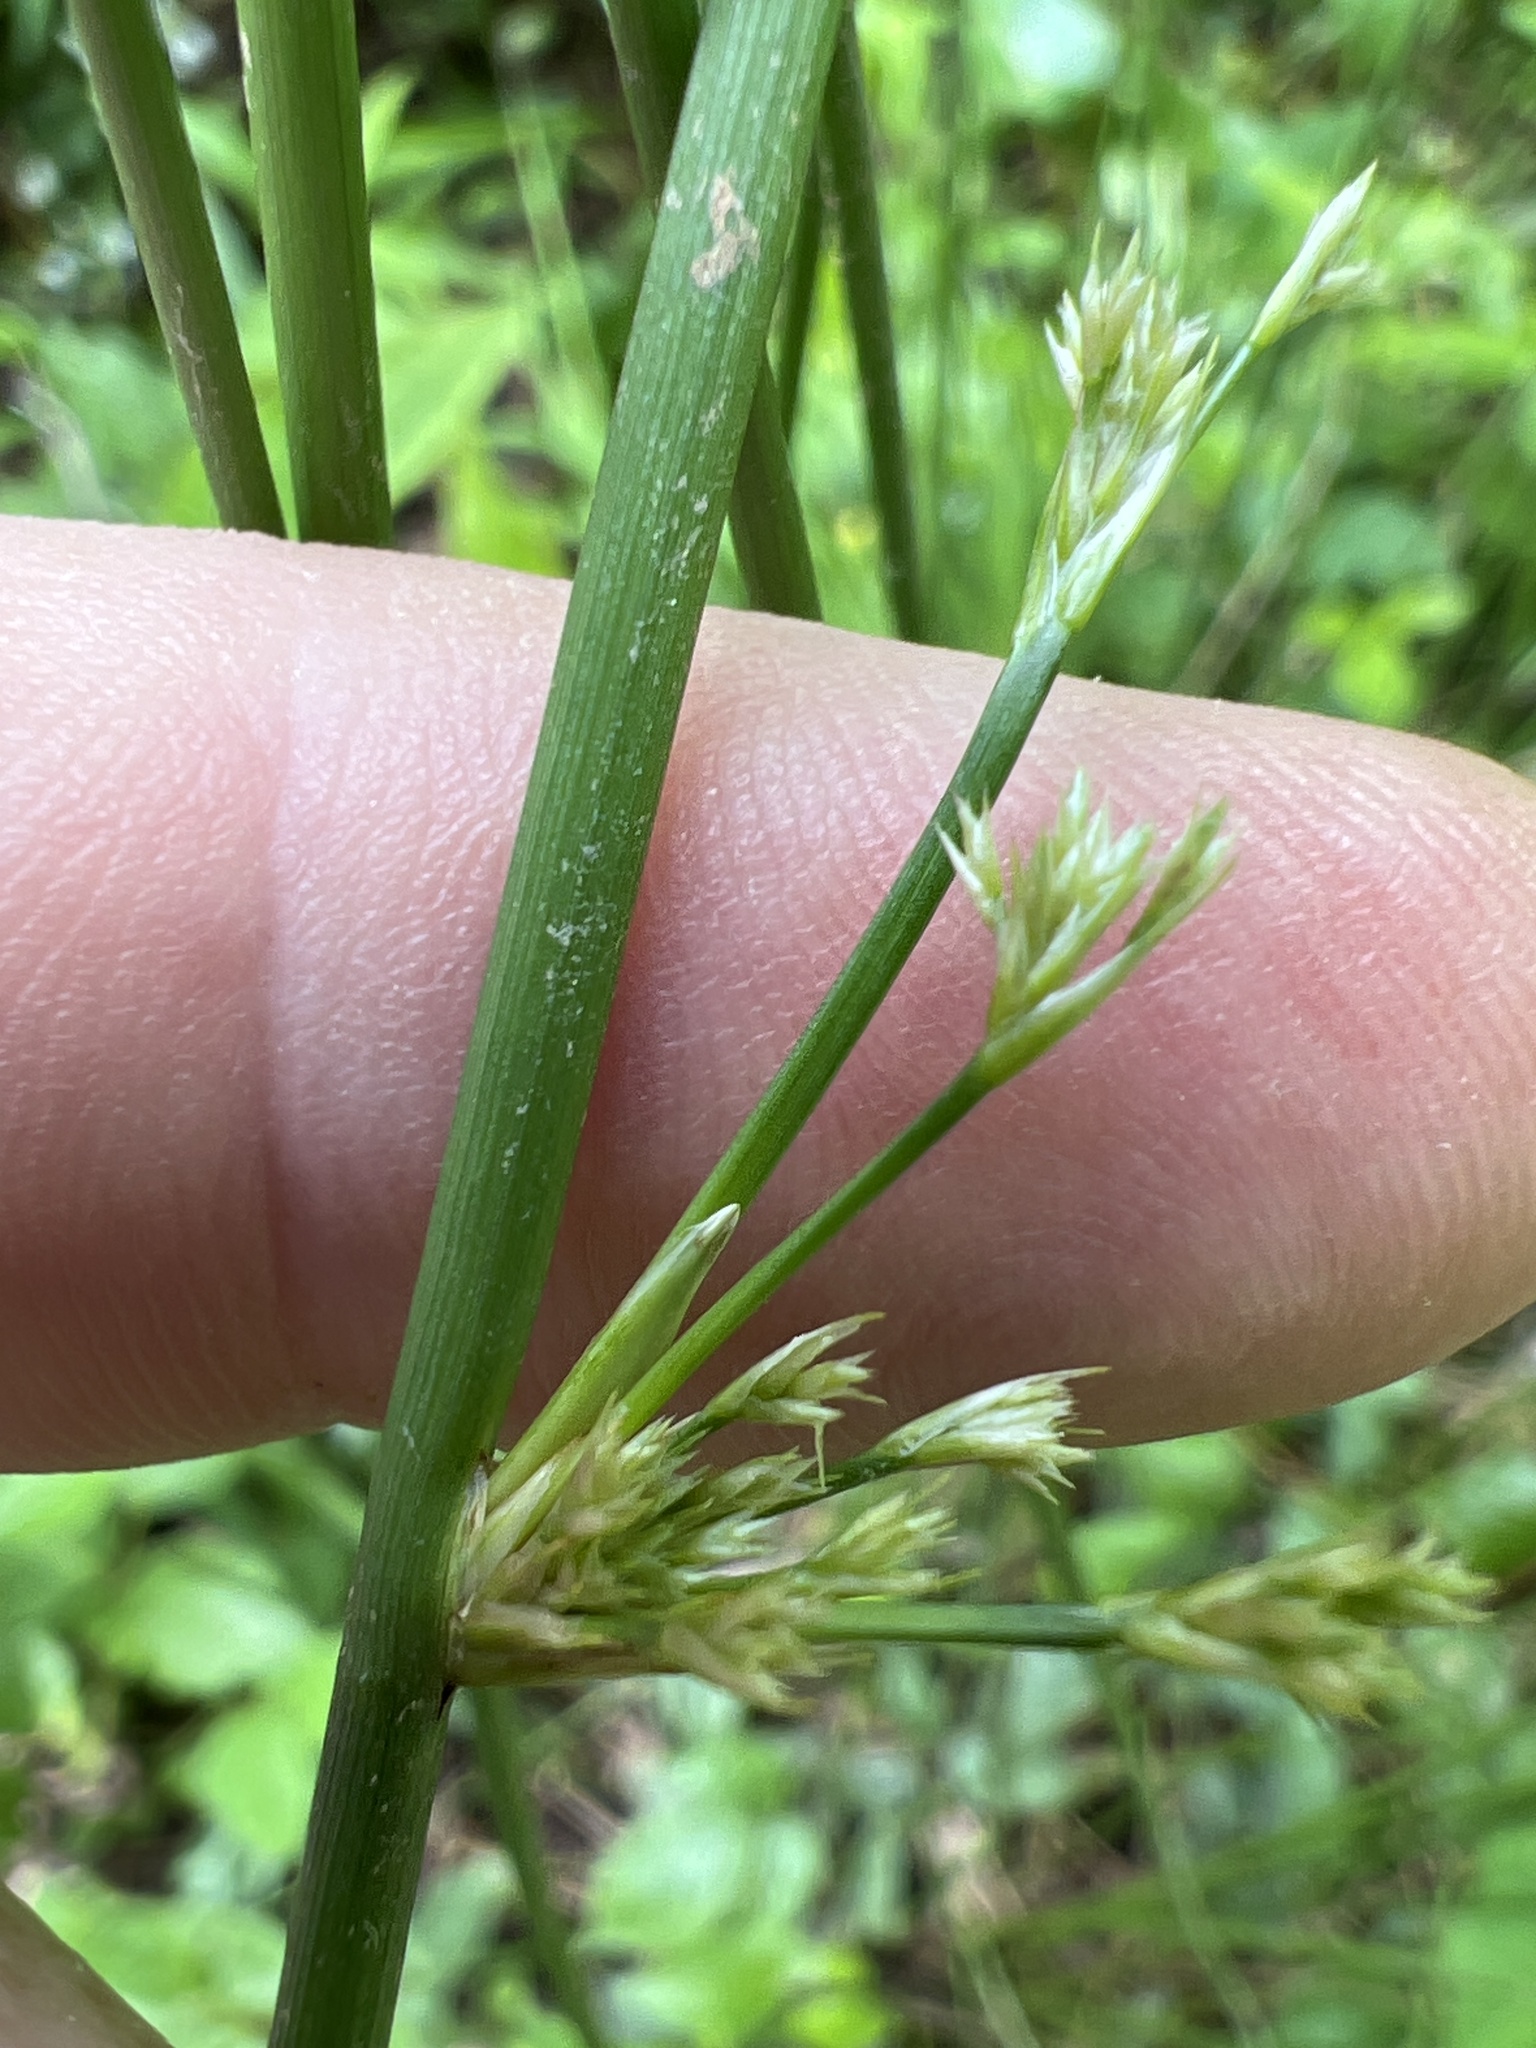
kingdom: Plantae
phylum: Tracheophyta
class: Liliopsida
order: Poales
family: Juncaceae
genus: Juncus
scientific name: Juncus effusus
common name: Soft rush
